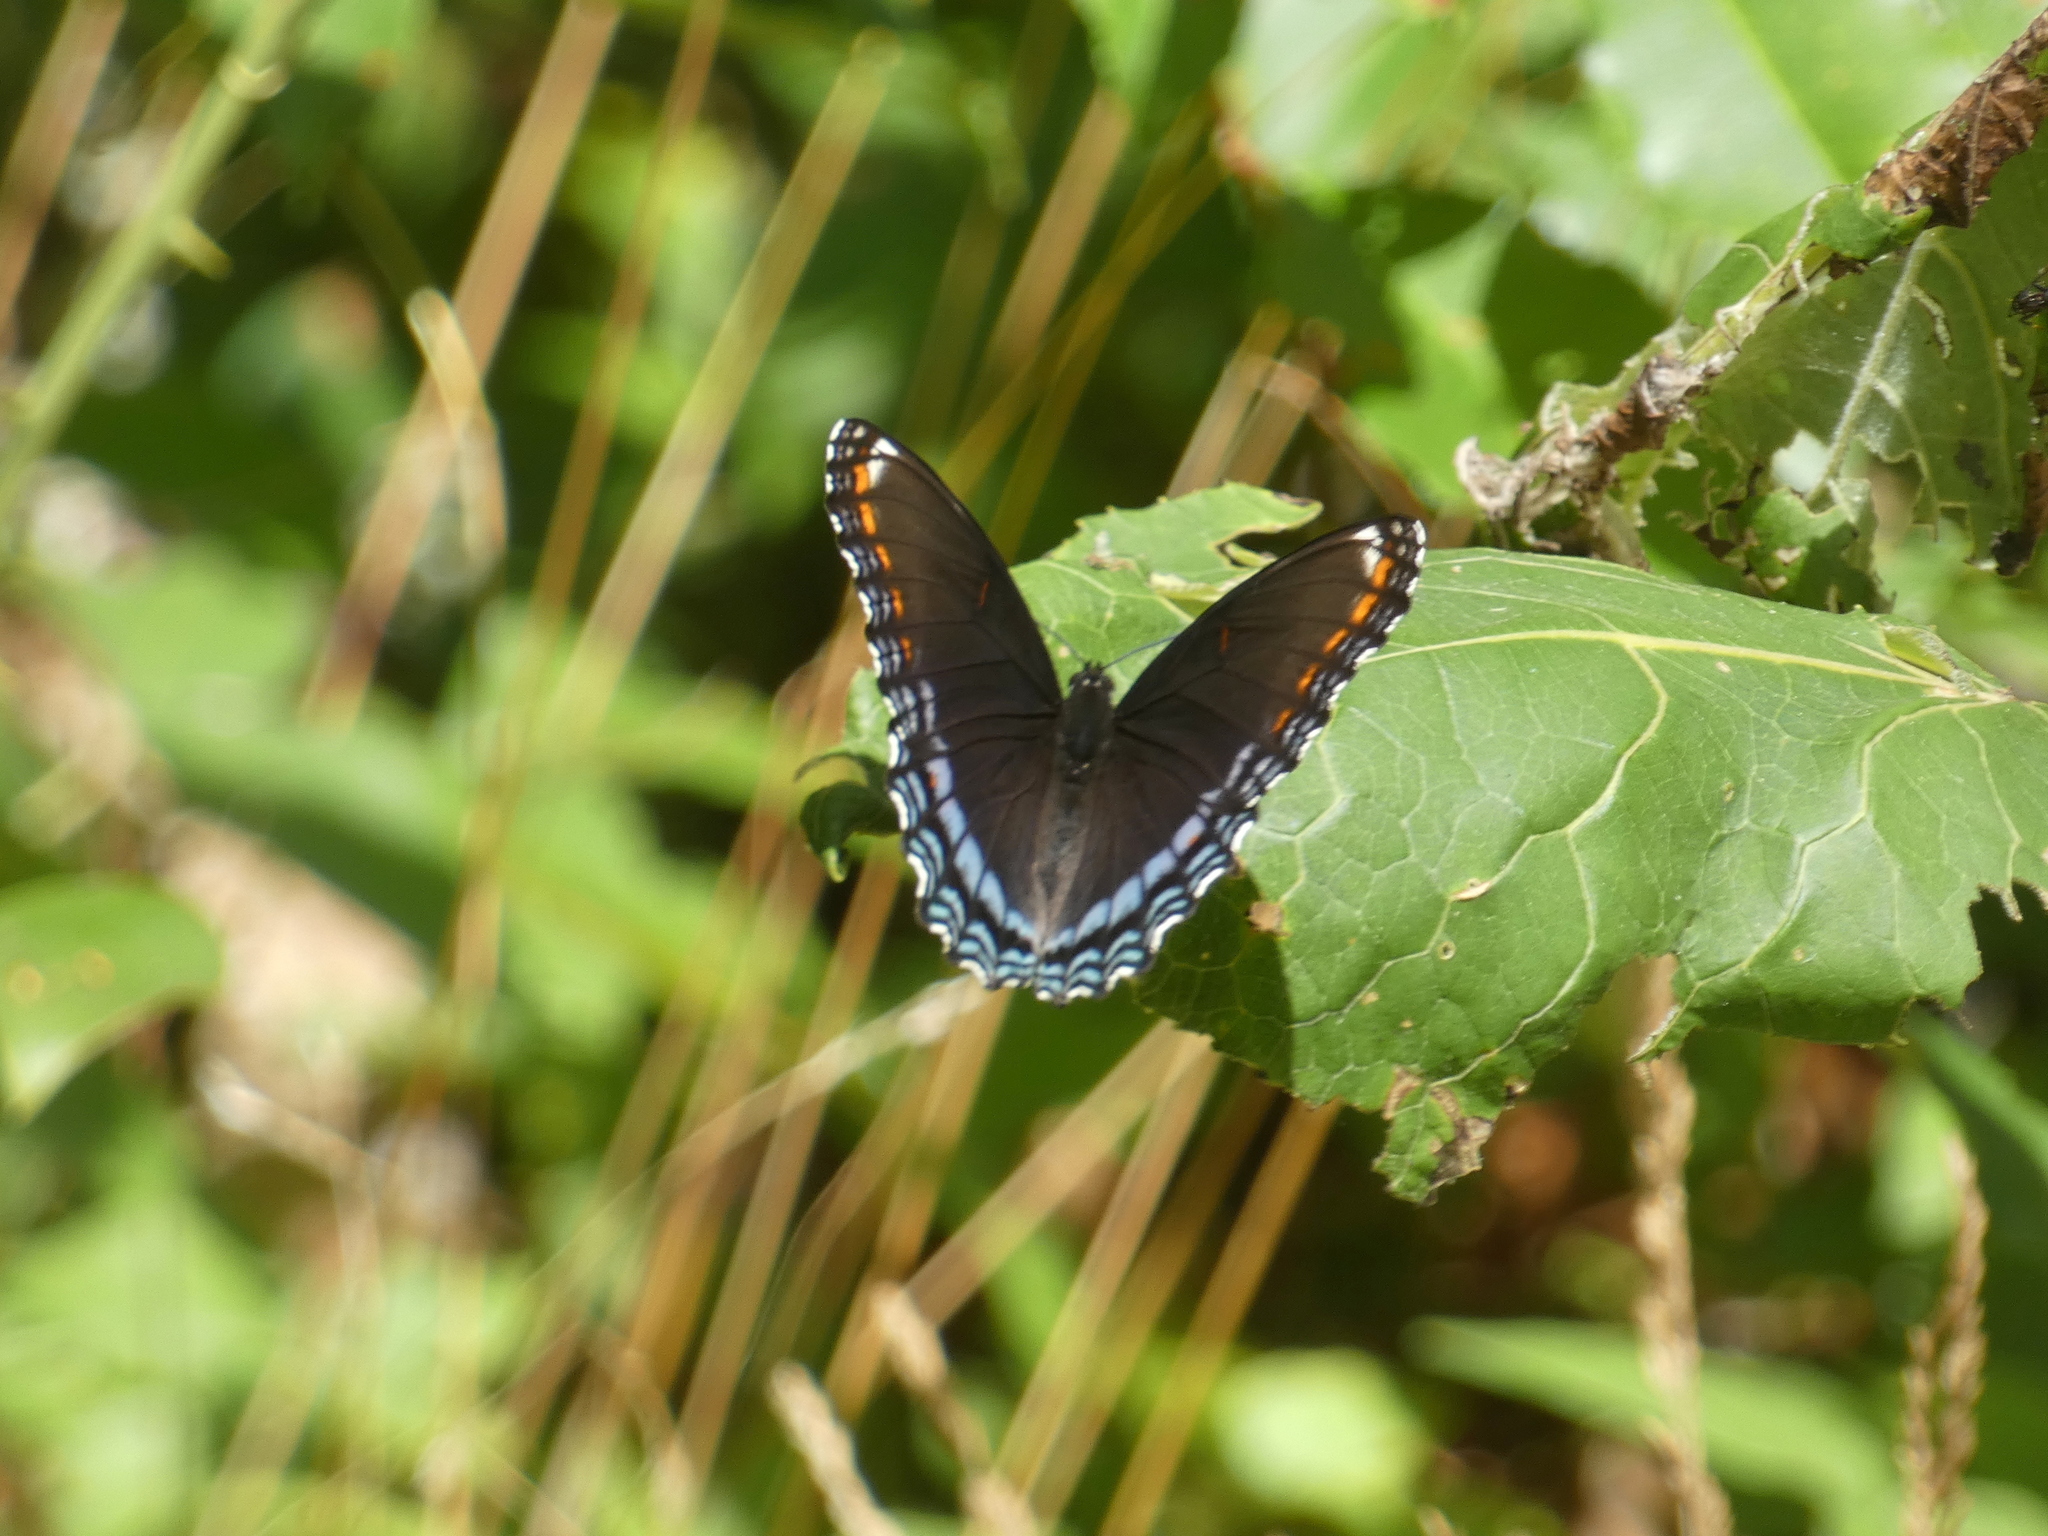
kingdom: Animalia
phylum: Arthropoda
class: Insecta
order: Lepidoptera
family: Nymphalidae
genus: Limenitis
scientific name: Limenitis astyanax
